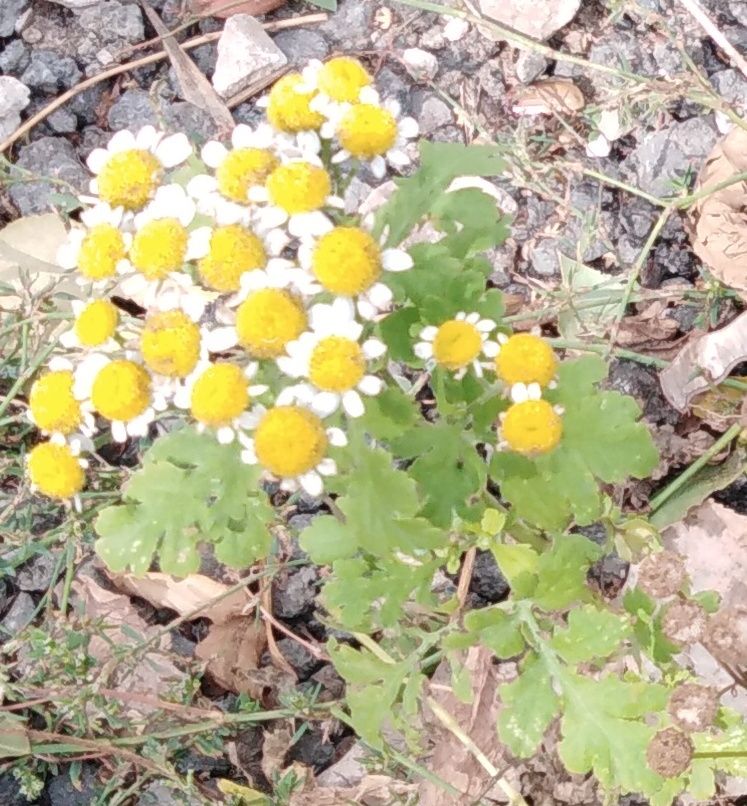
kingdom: Plantae
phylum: Tracheophyta
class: Magnoliopsida
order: Asterales
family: Asteraceae
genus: Tanacetum
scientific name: Tanacetum parthenium
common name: Feverfew
